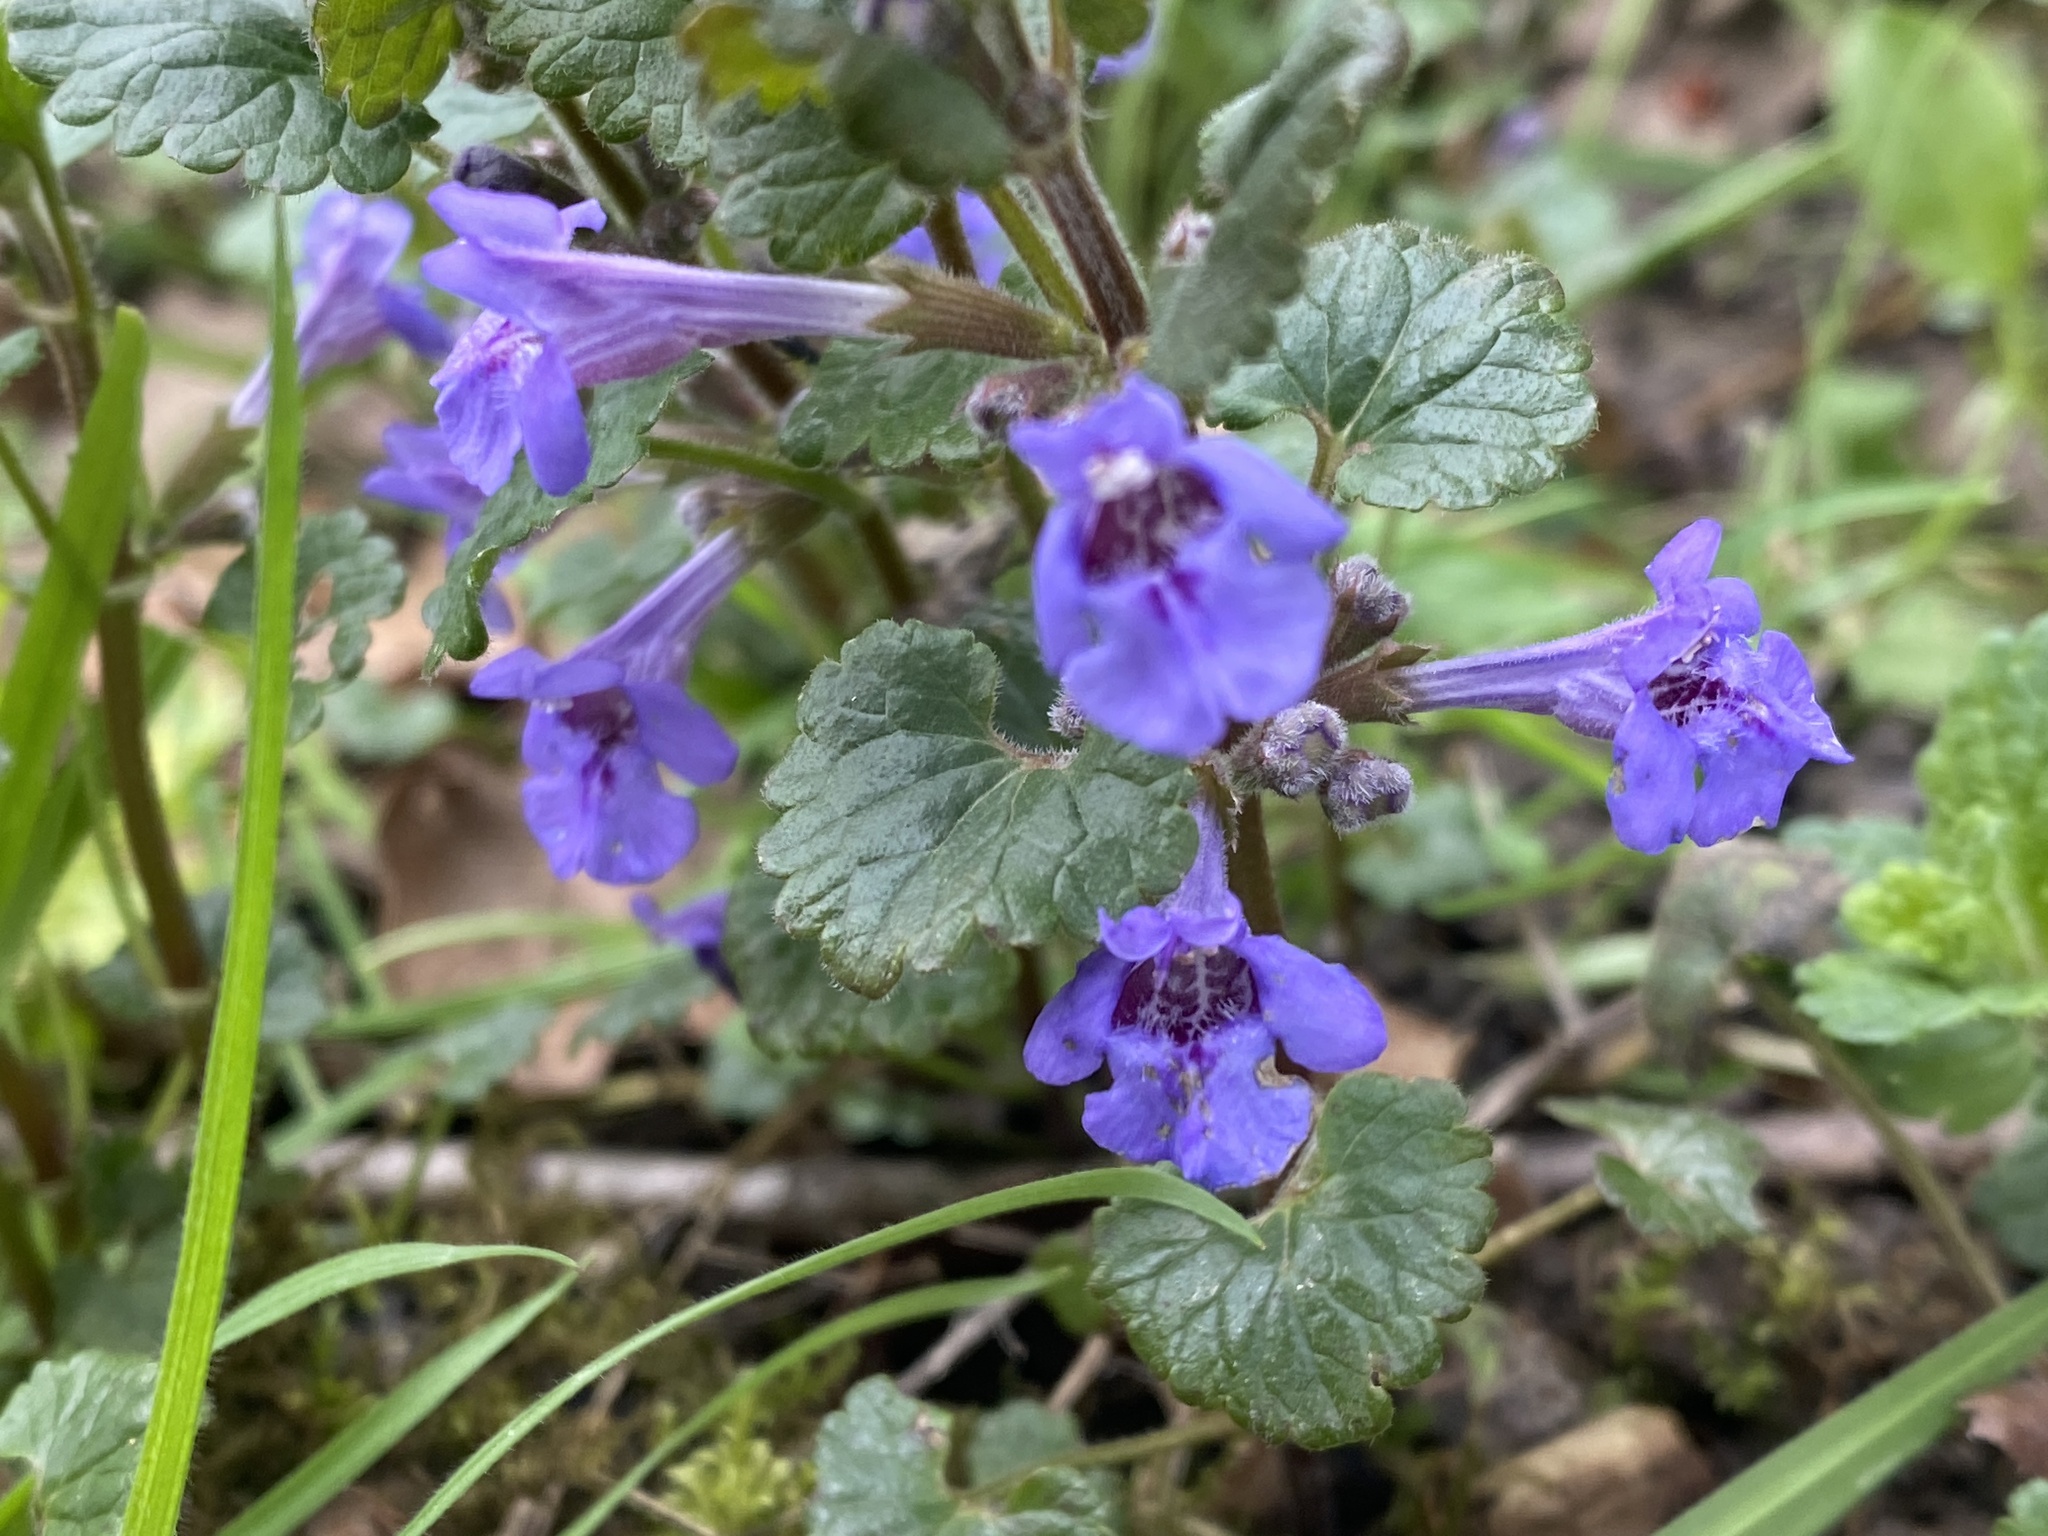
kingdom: Plantae
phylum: Tracheophyta
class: Magnoliopsida
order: Lamiales
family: Lamiaceae
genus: Glechoma
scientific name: Glechoma hederacea
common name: Ground ivy
